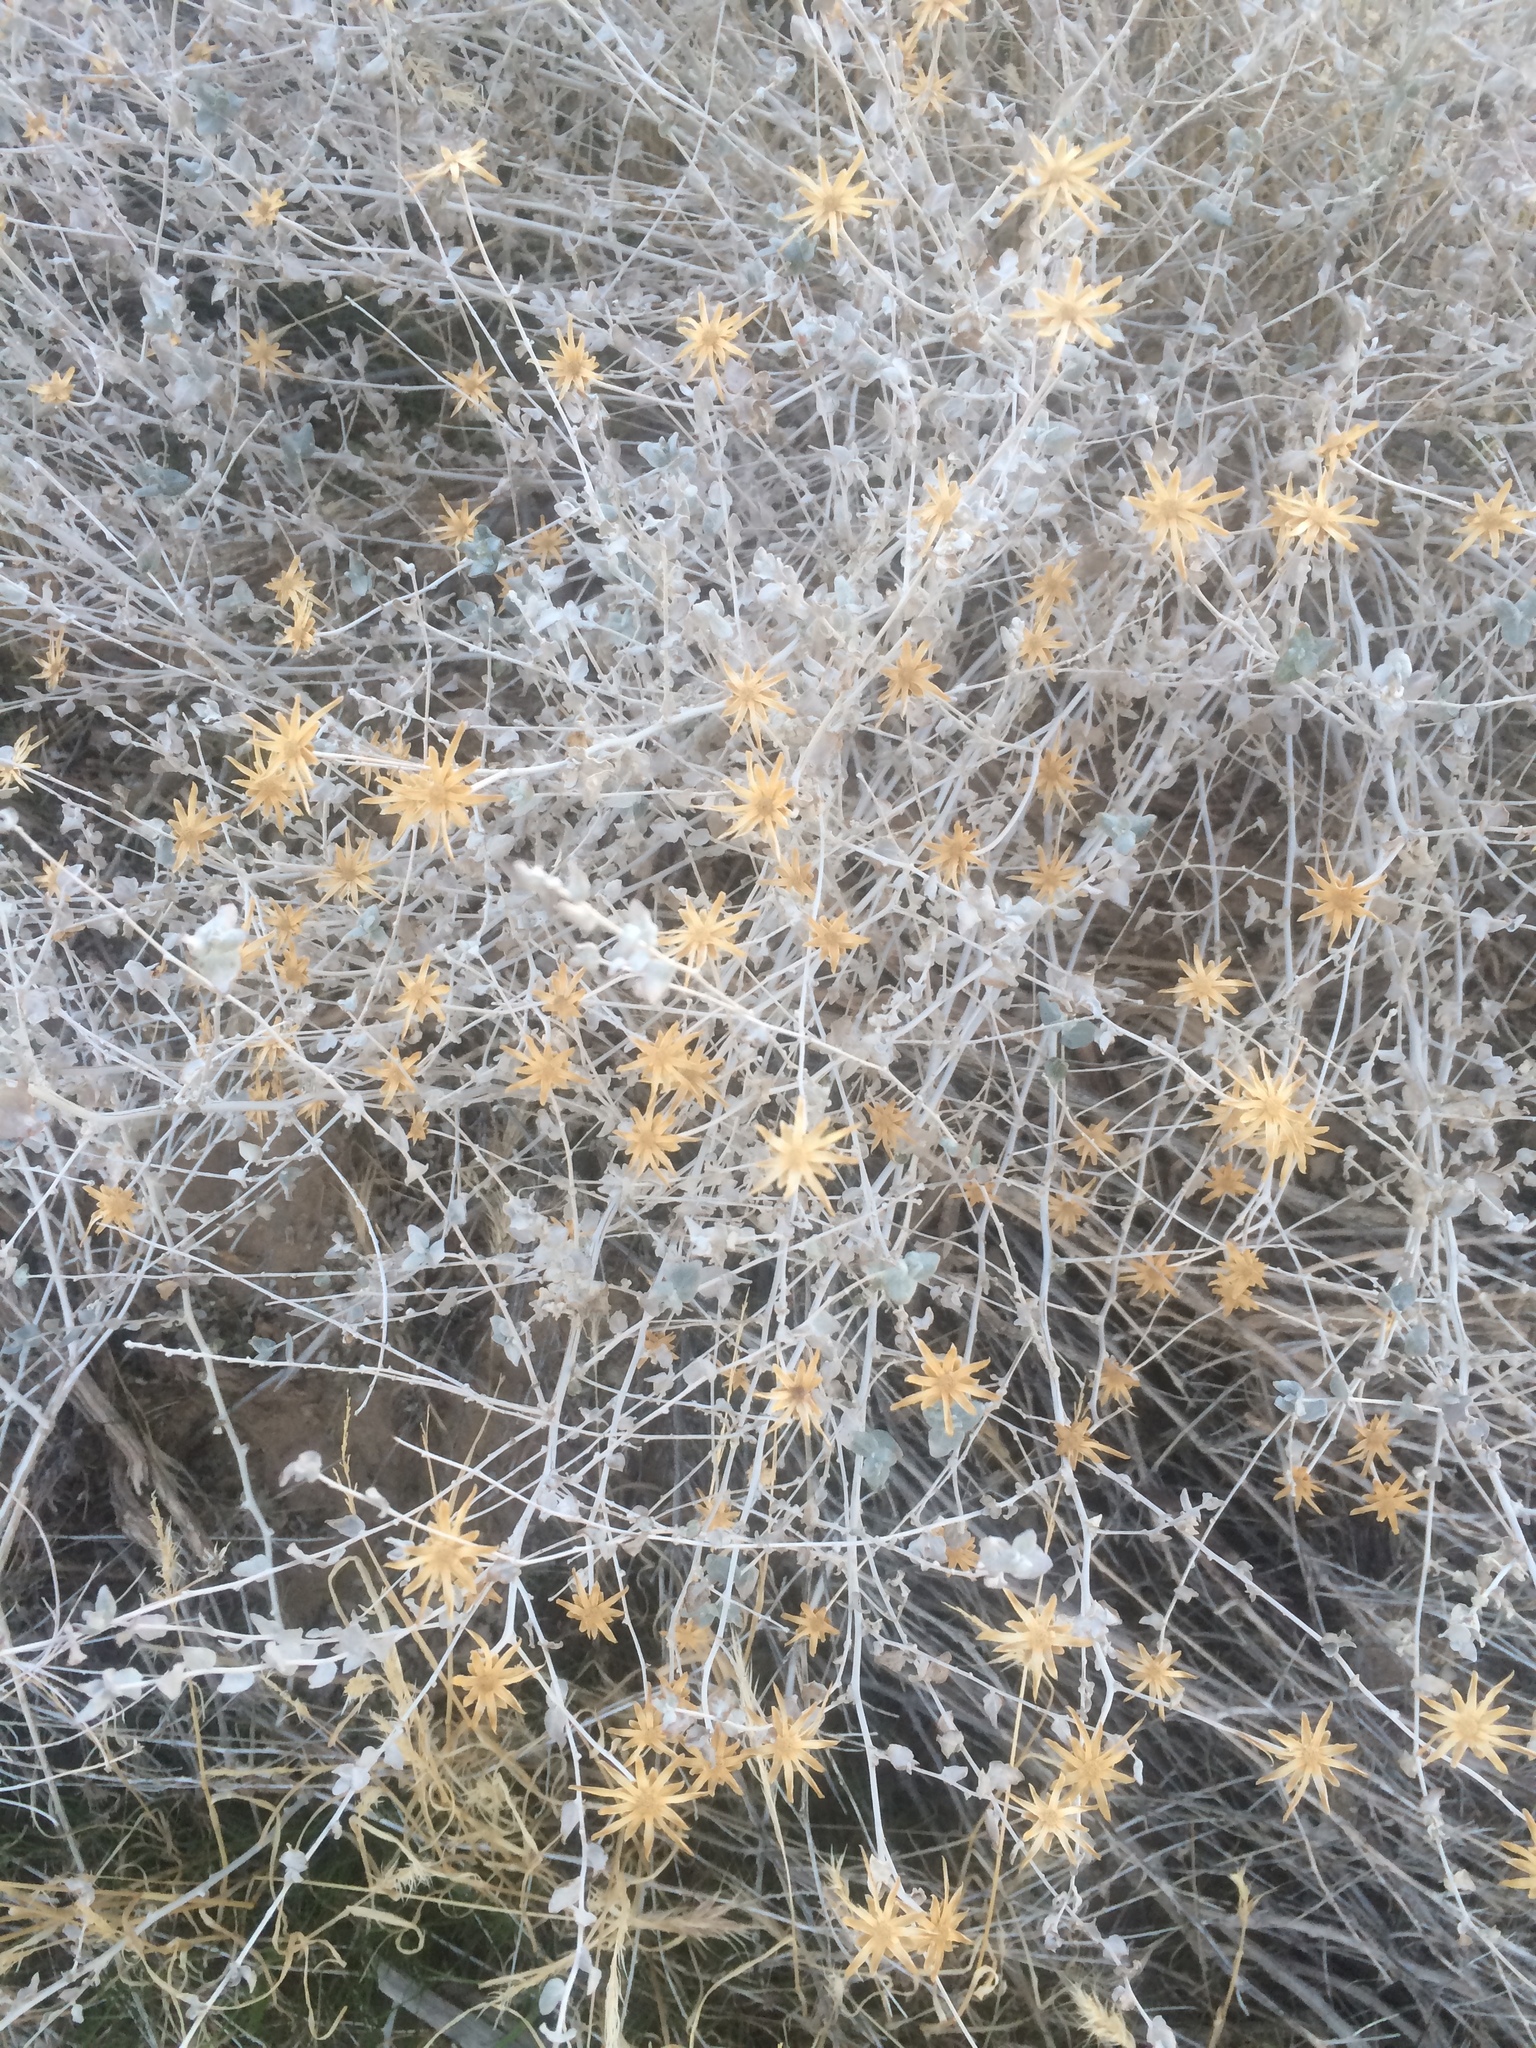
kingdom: Plantae
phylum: Tracheophyta
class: Magnoliopsida
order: Asterales
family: Asteraceae
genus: Brickellia
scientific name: Brickellia incana
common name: Woolly brickelbush
